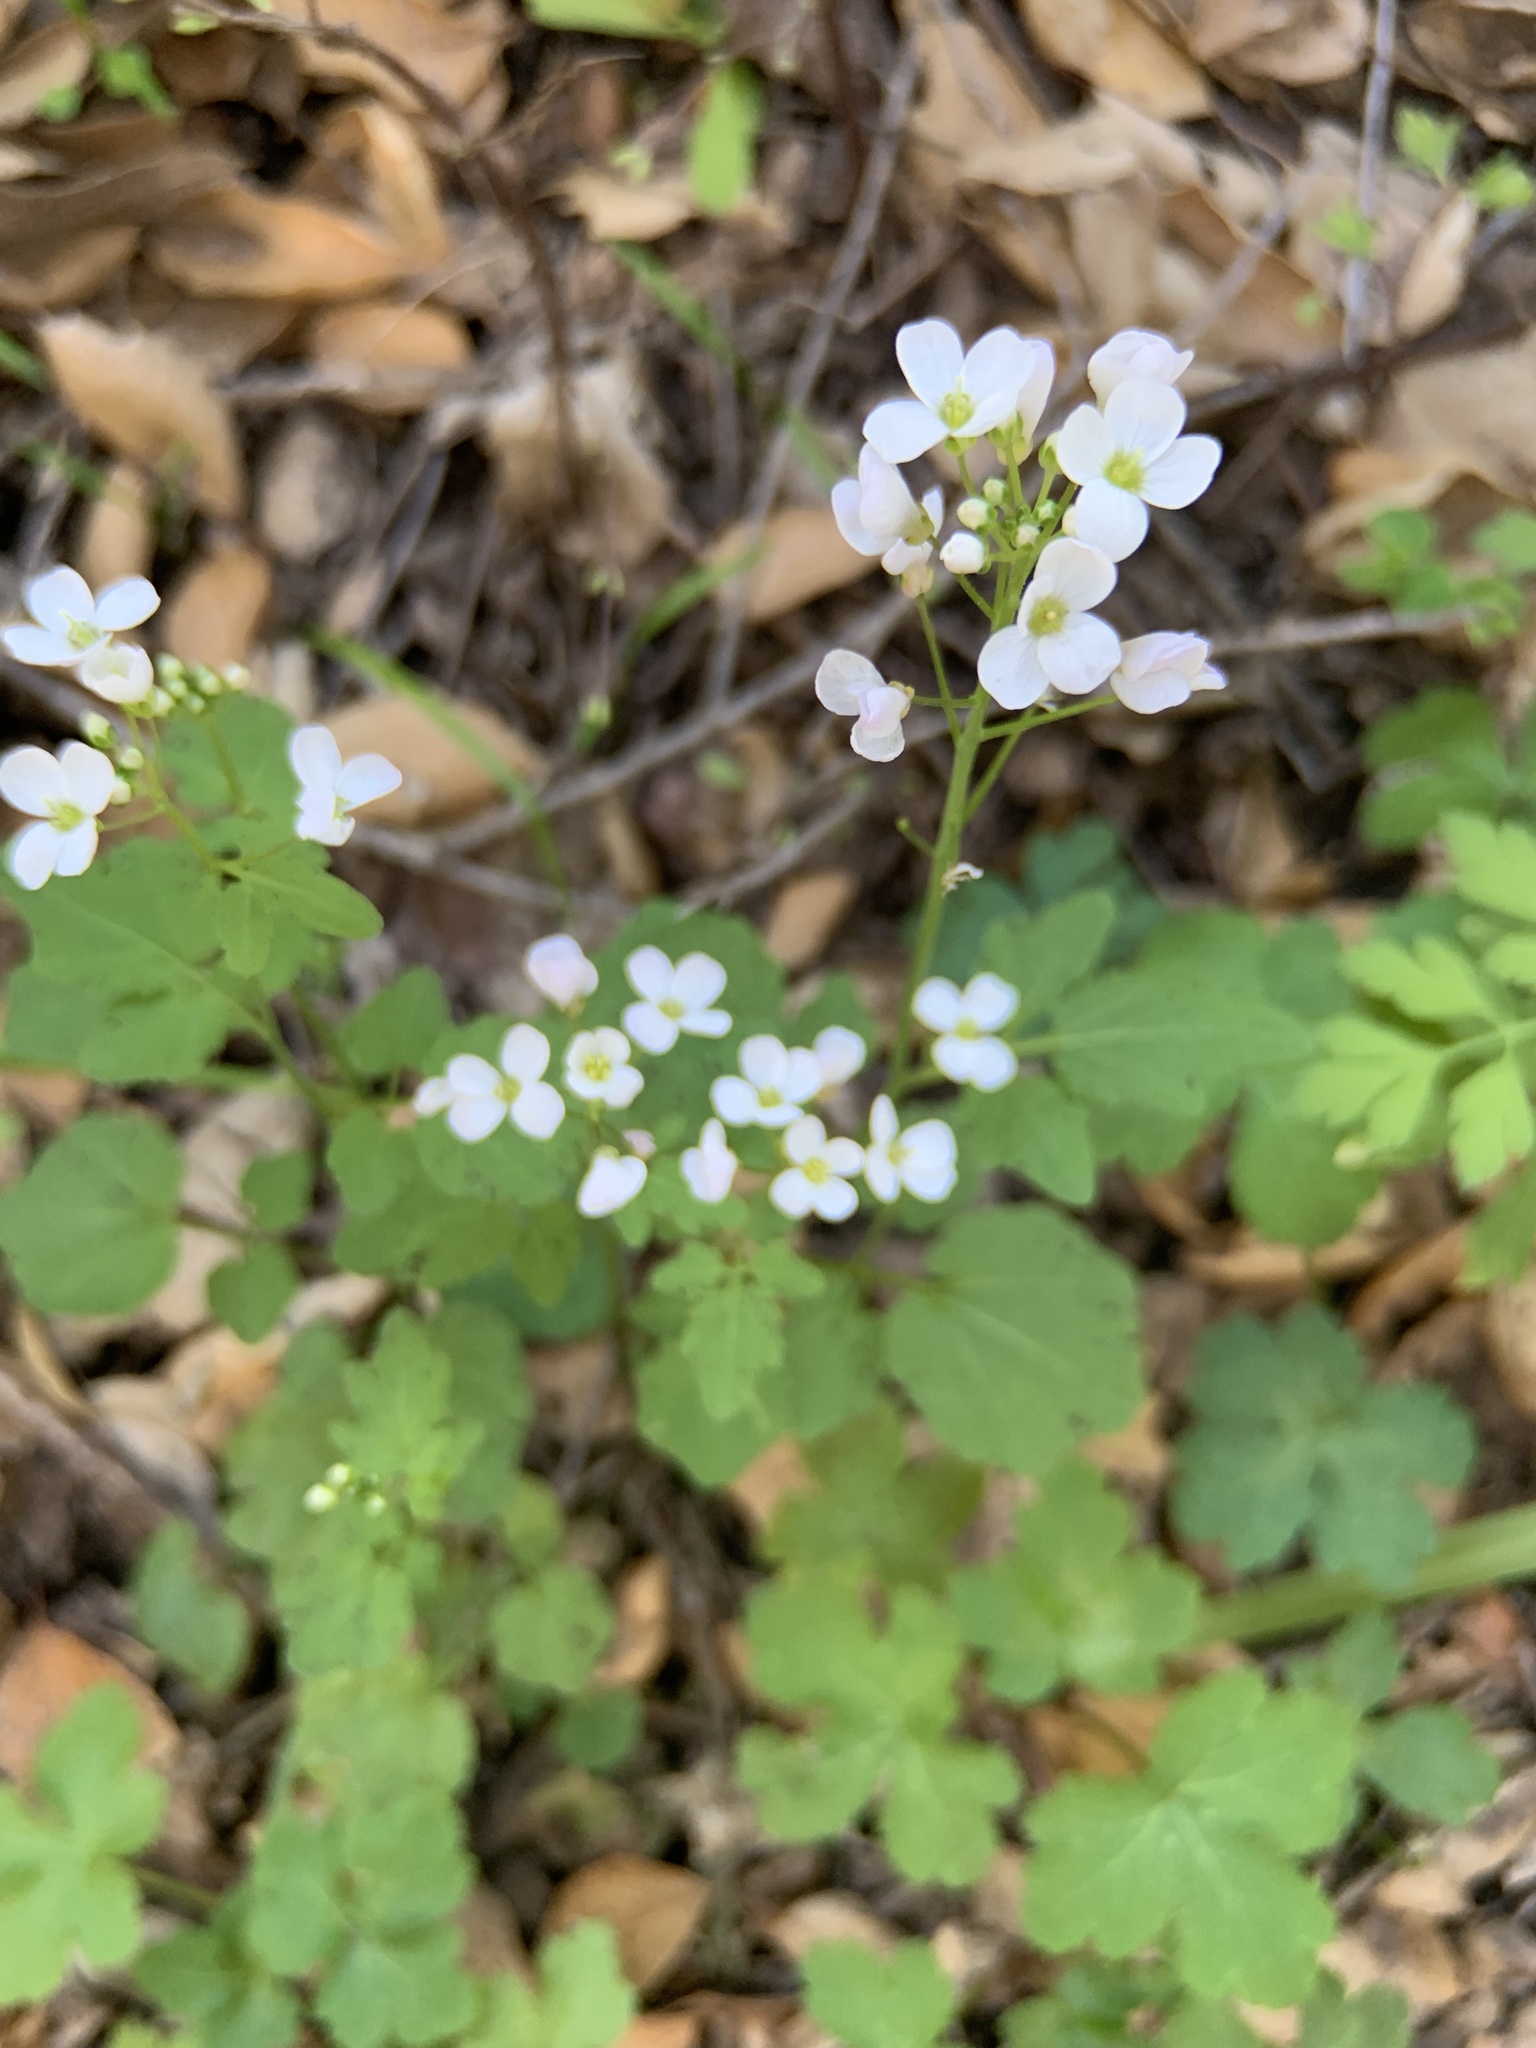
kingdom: Plantae
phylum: Tracheophyta
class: Magnoliopsida
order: Brassicales
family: Brassicaceae
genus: Cardamine
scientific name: Cardamine californica
